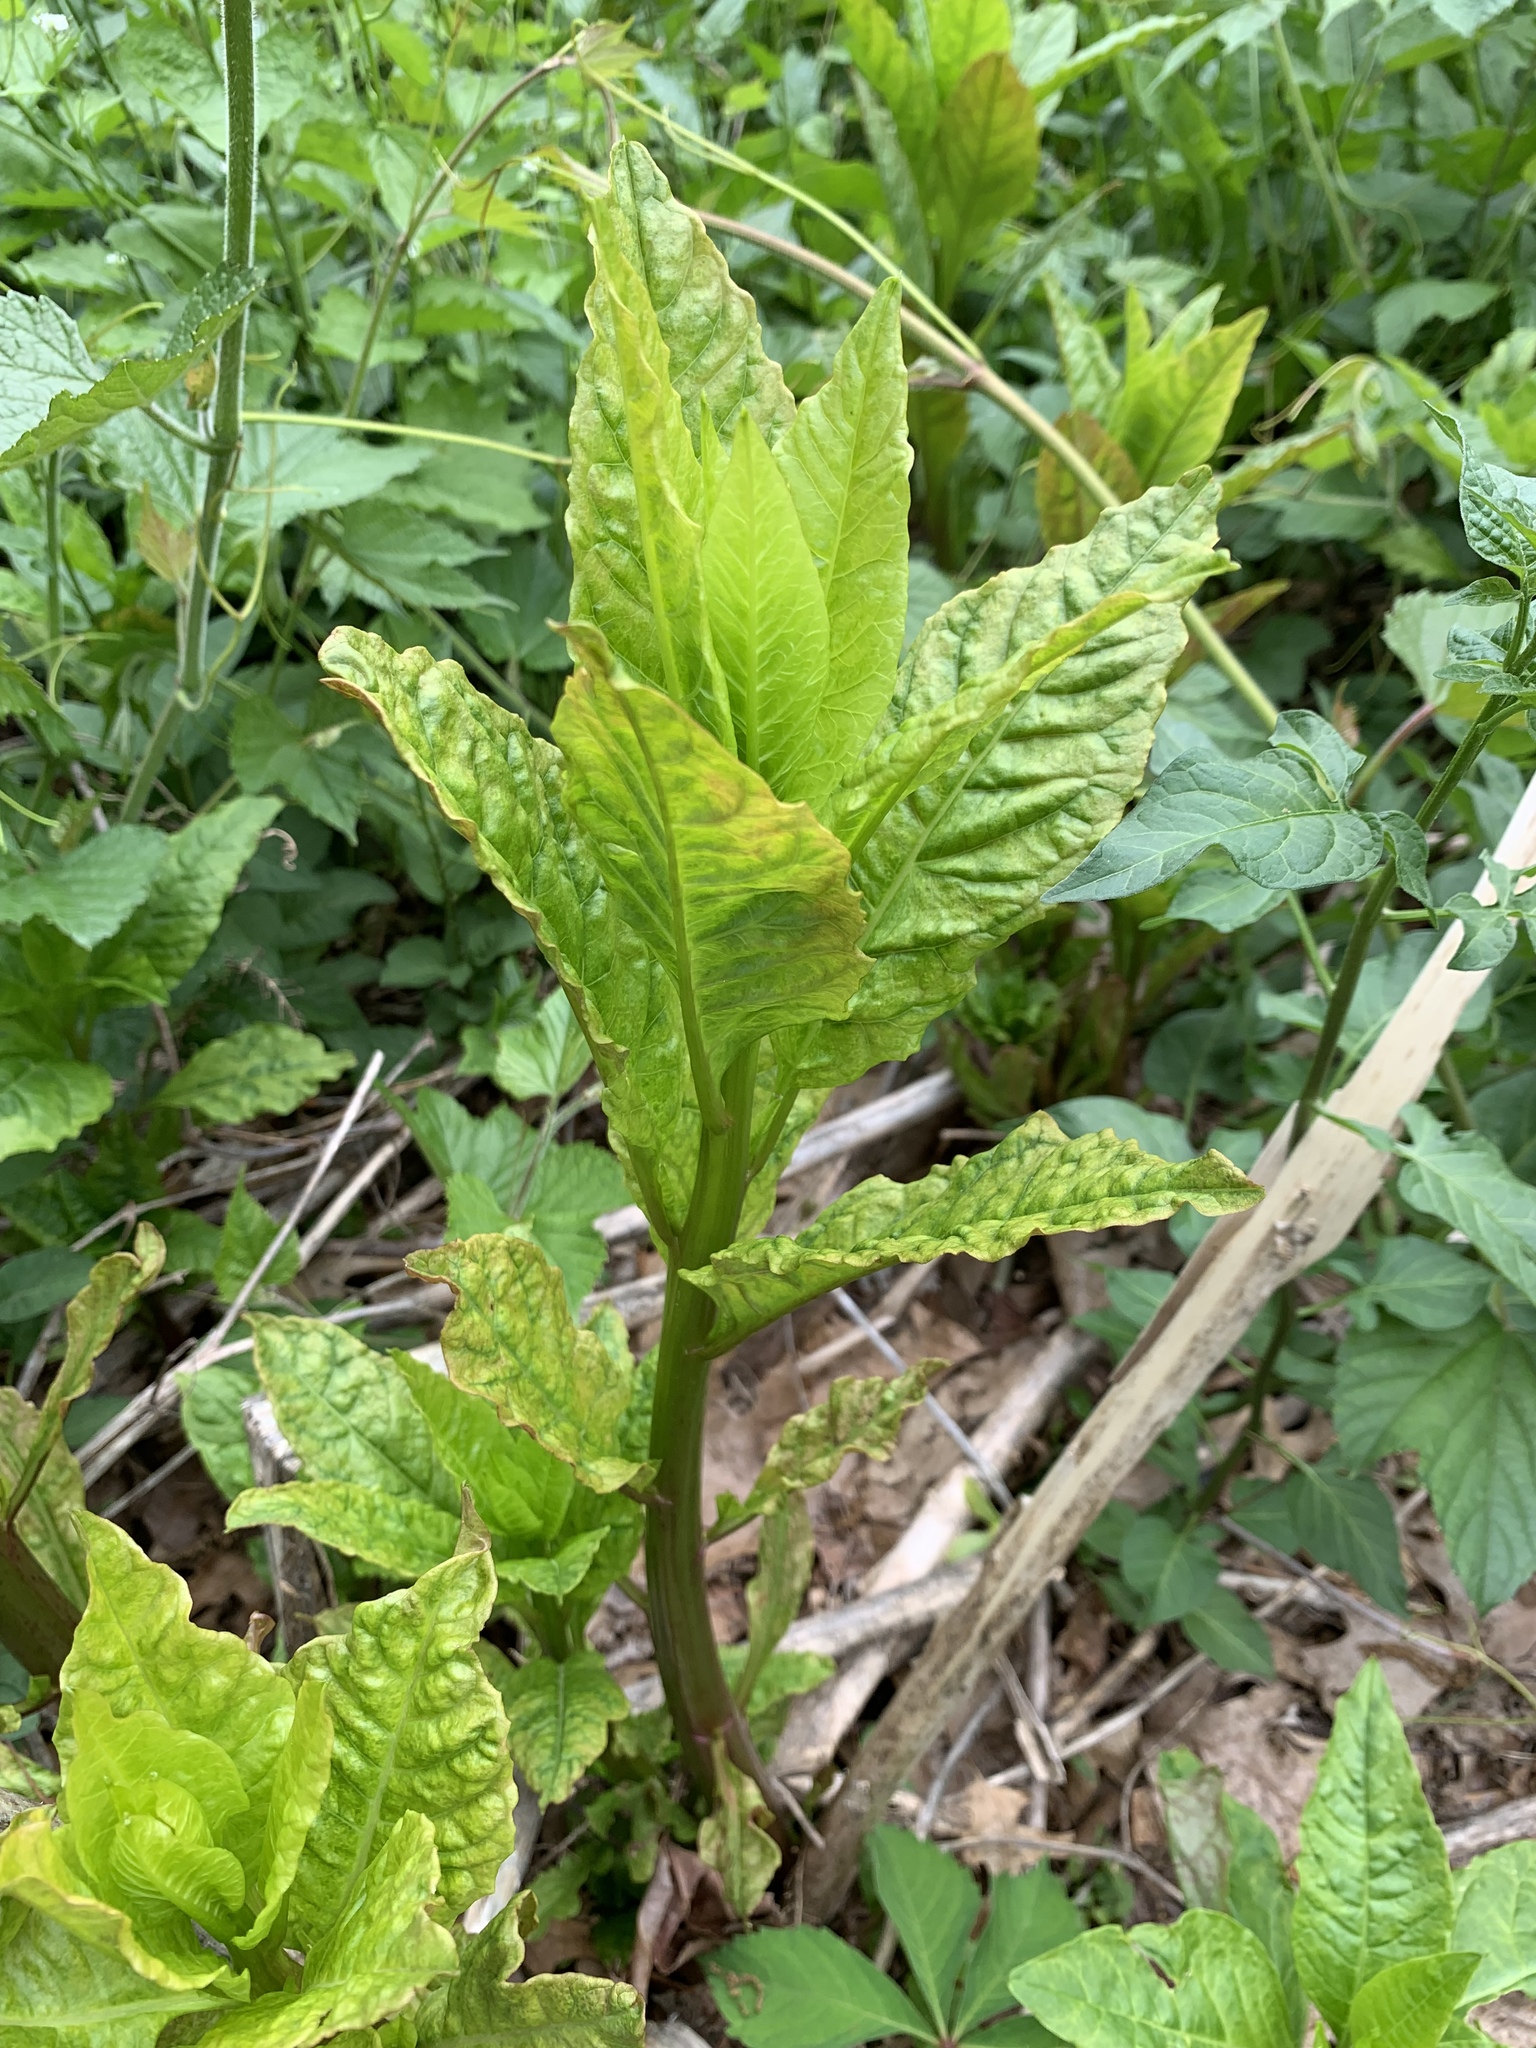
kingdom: Plantae
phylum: Tracheophyta
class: Magnoliopsida
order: Caryophyllales
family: Phytolaccaceae
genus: Phytolacca
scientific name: Phytolacca americana
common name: American pokeweed
